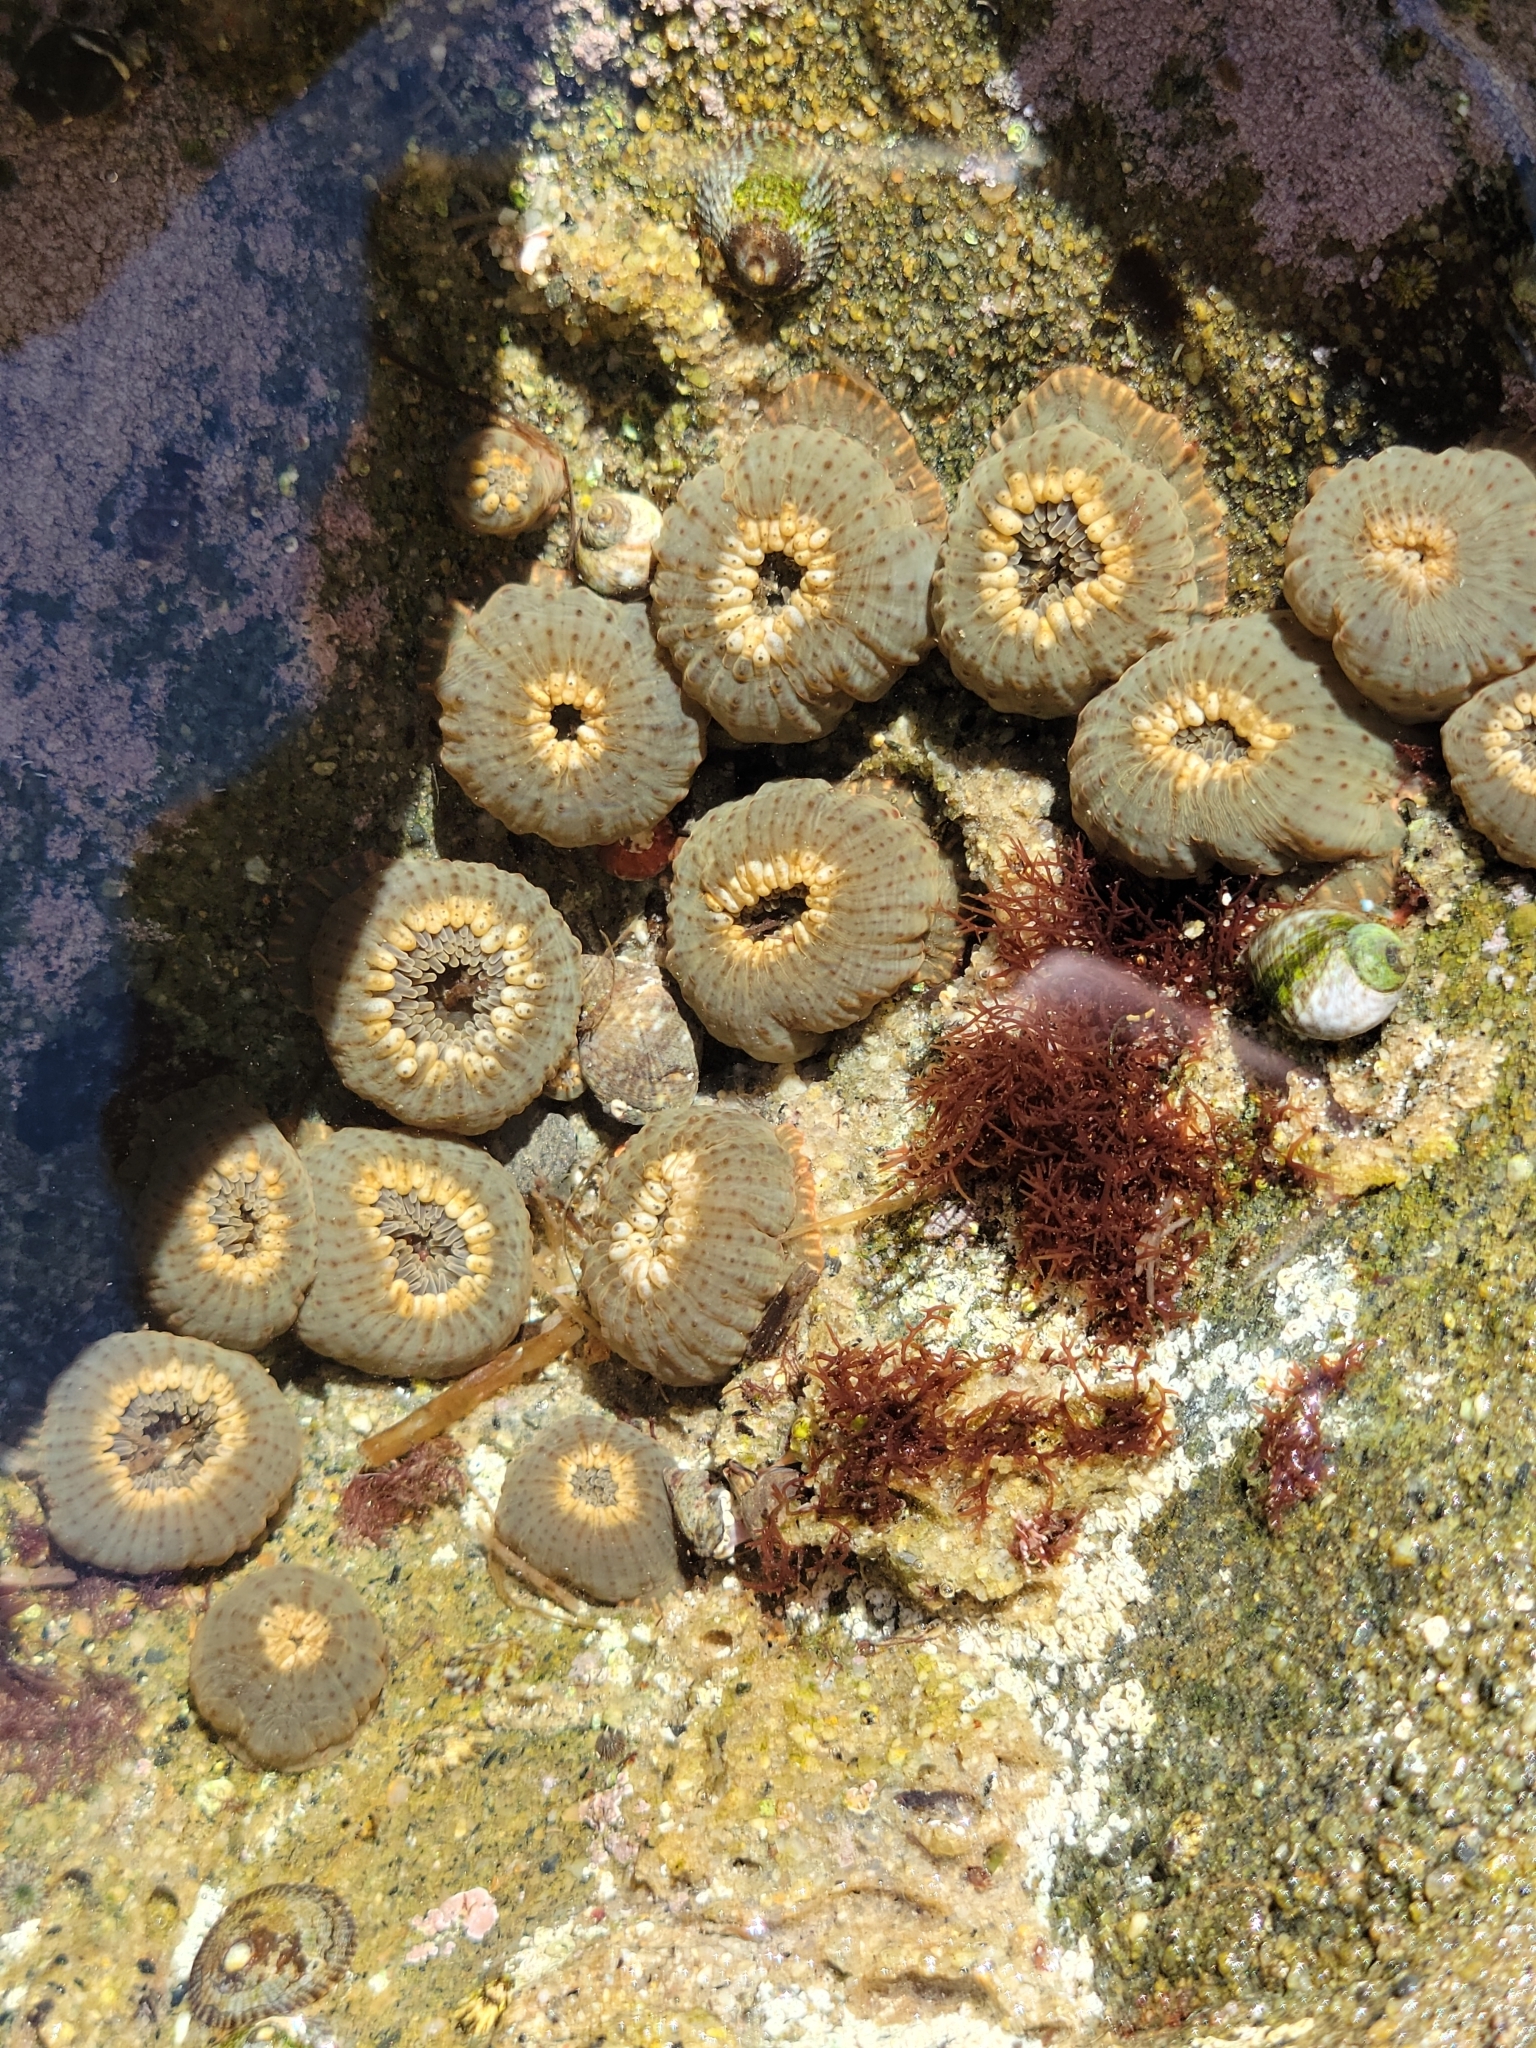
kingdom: Animalia
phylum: Cnidaria
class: Anthozoa
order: Actiniaria
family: Actiniidae
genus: Anthopleura
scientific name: Anthopleura mariae
